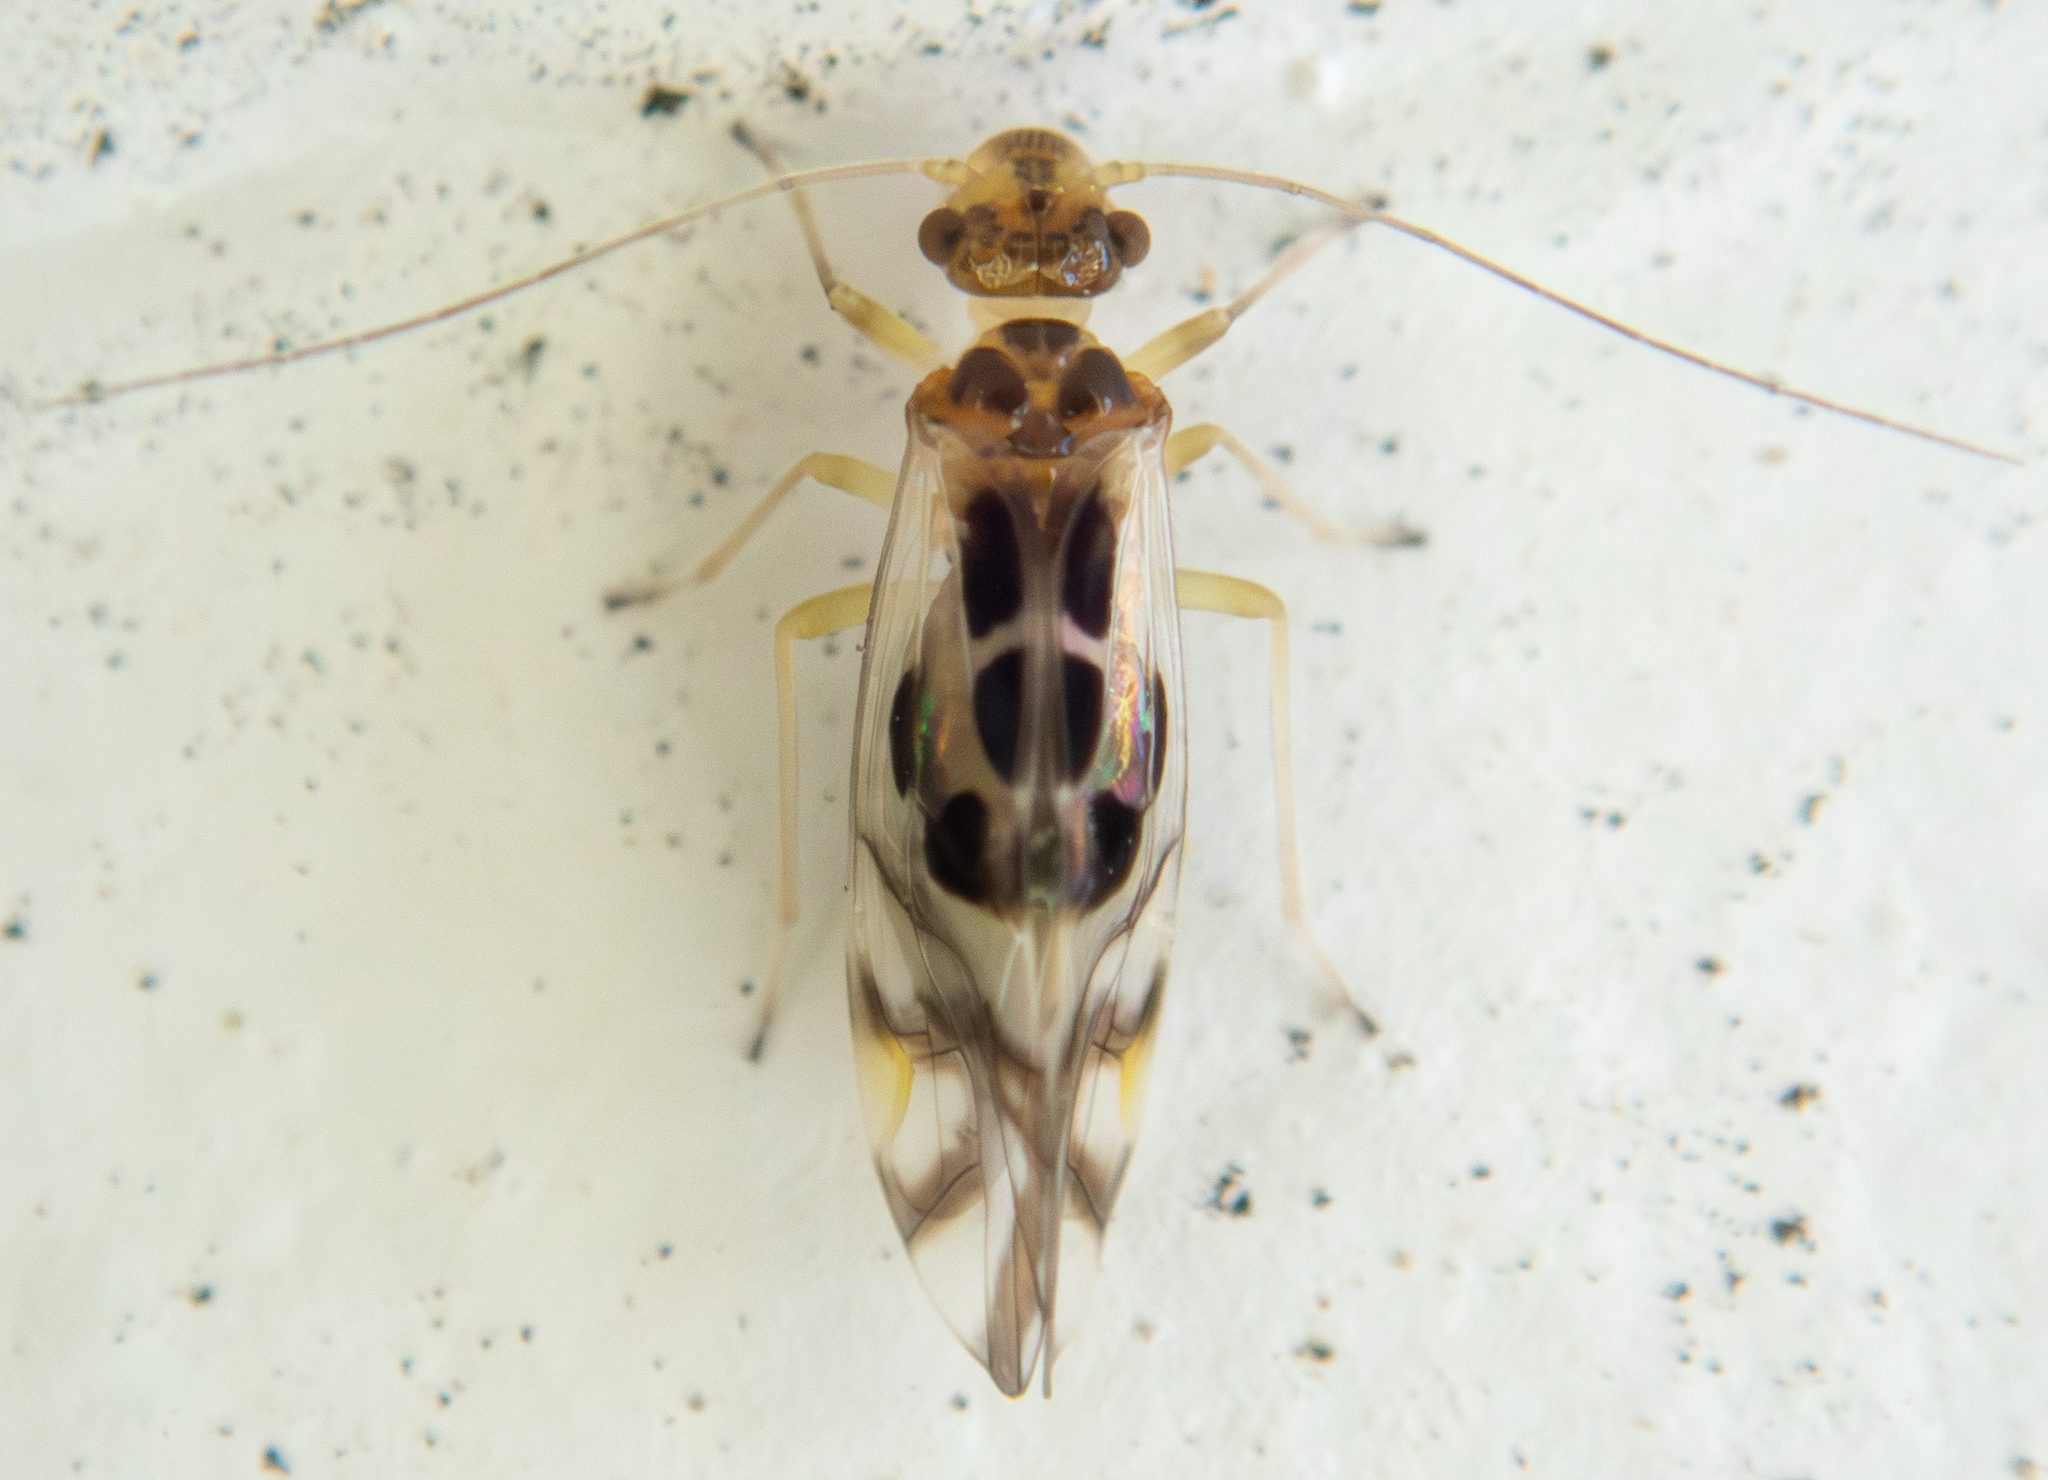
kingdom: Animalia
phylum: Arthropoda
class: Insecta
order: Psocodea
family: Stenopsocidae
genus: Graphopsocus
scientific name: Graphopsocus cruciatus
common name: Lizard bark louse
